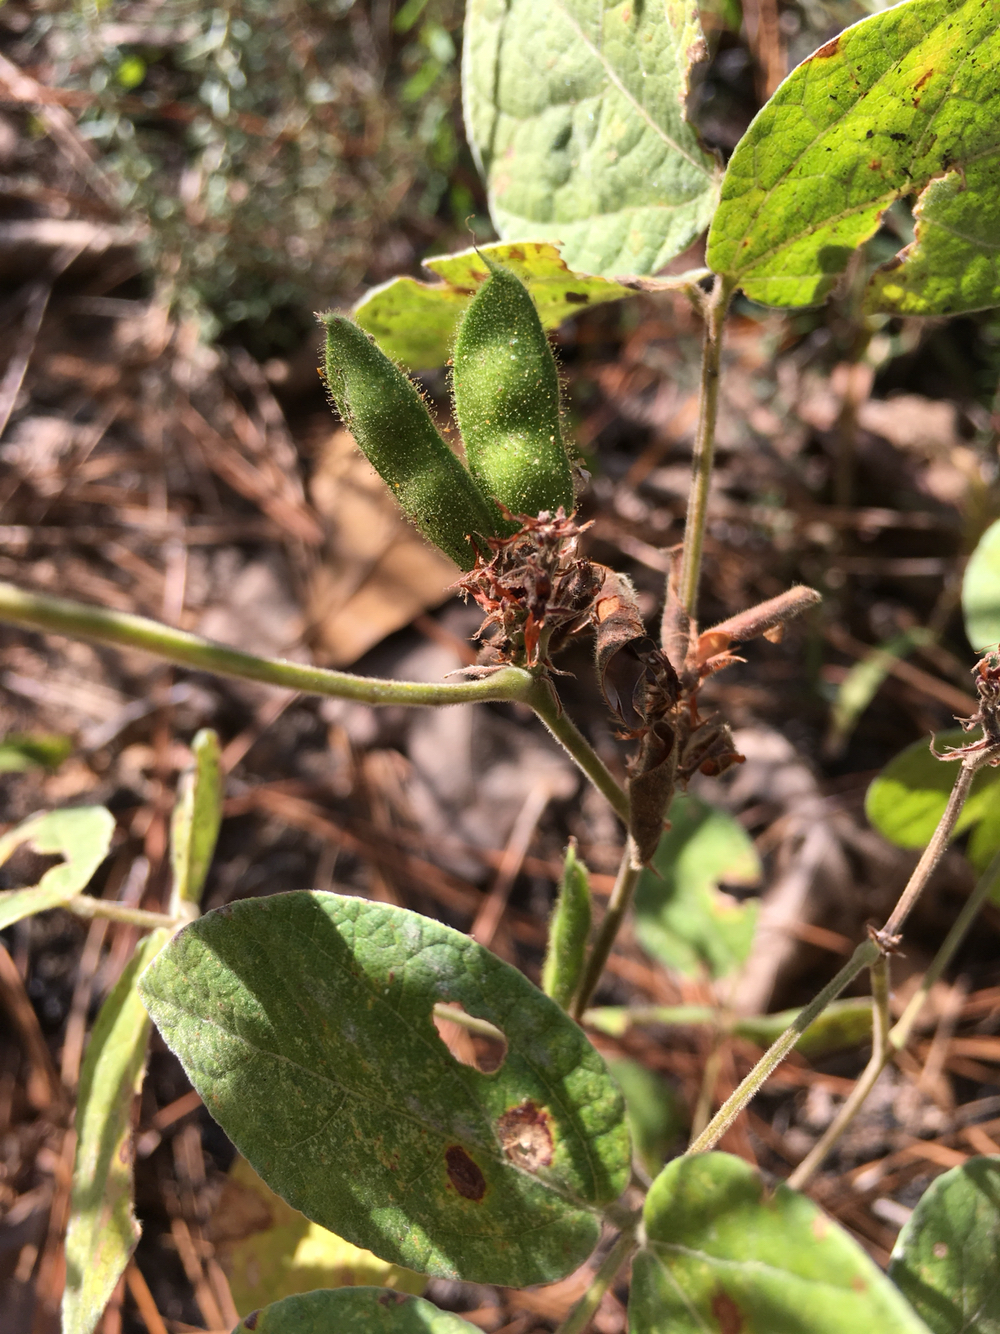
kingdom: Plantae
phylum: Tracheophyta
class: Magnoliopsida
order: Fabales
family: Fabaceae
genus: Rhynchosia
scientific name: Rhynchosia tomentosa
